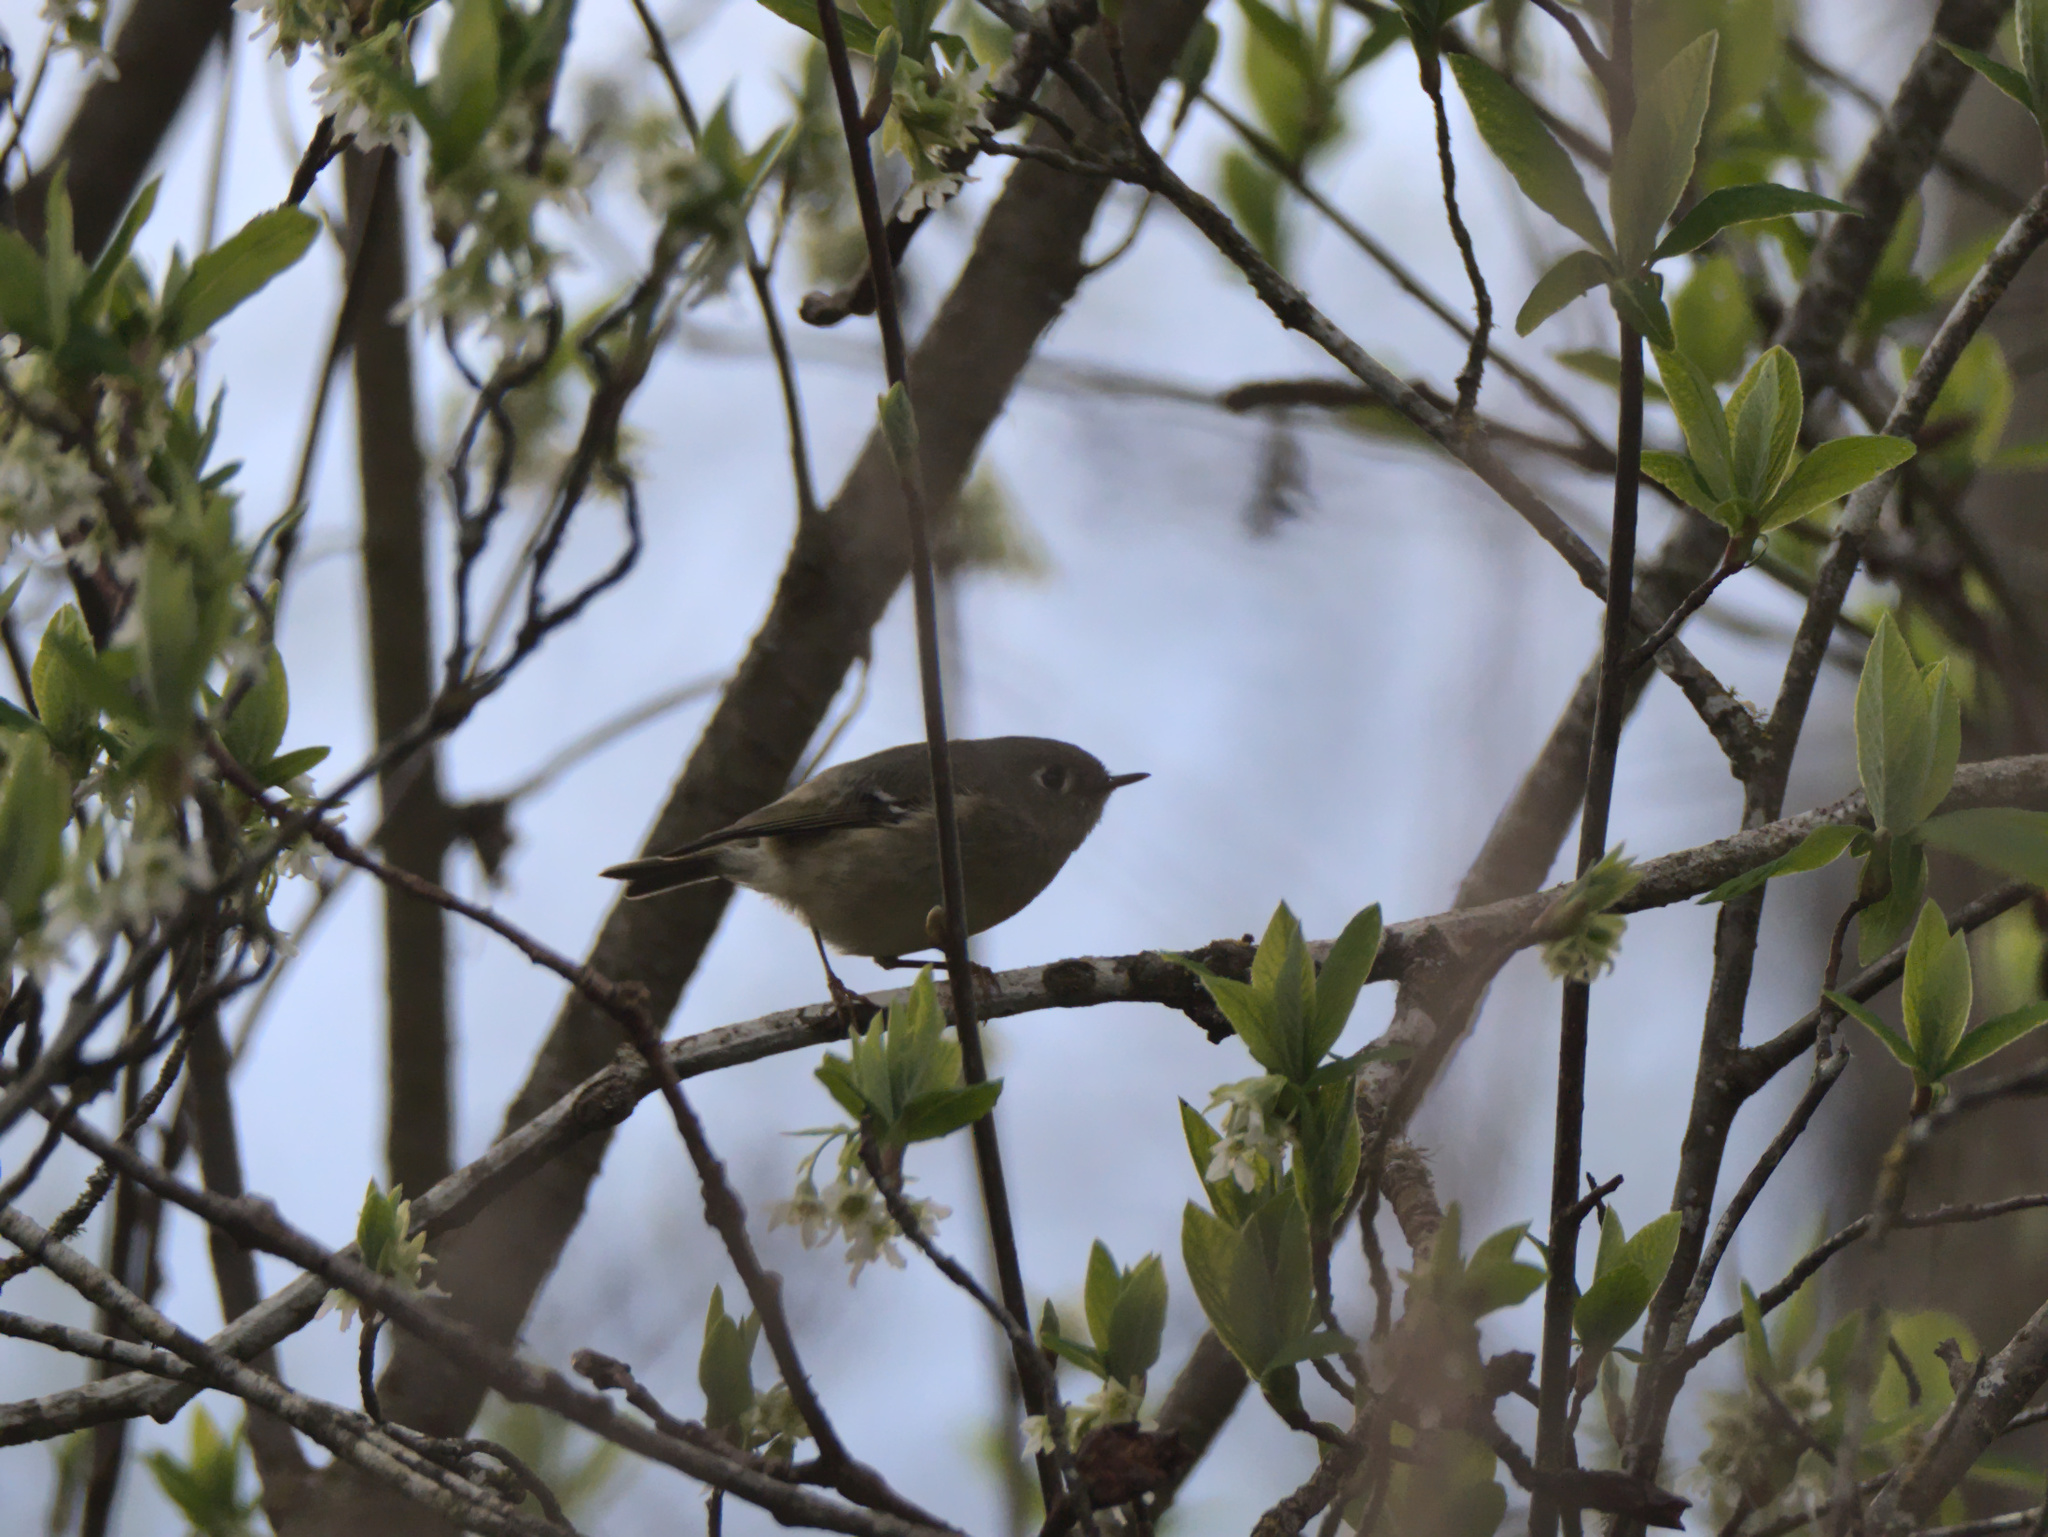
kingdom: Animalia
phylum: Chordata
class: Aves
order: Passeriformes
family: Regulidae
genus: Regulus
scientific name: Regulus calendula
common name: Ruby-crowned kinglet
